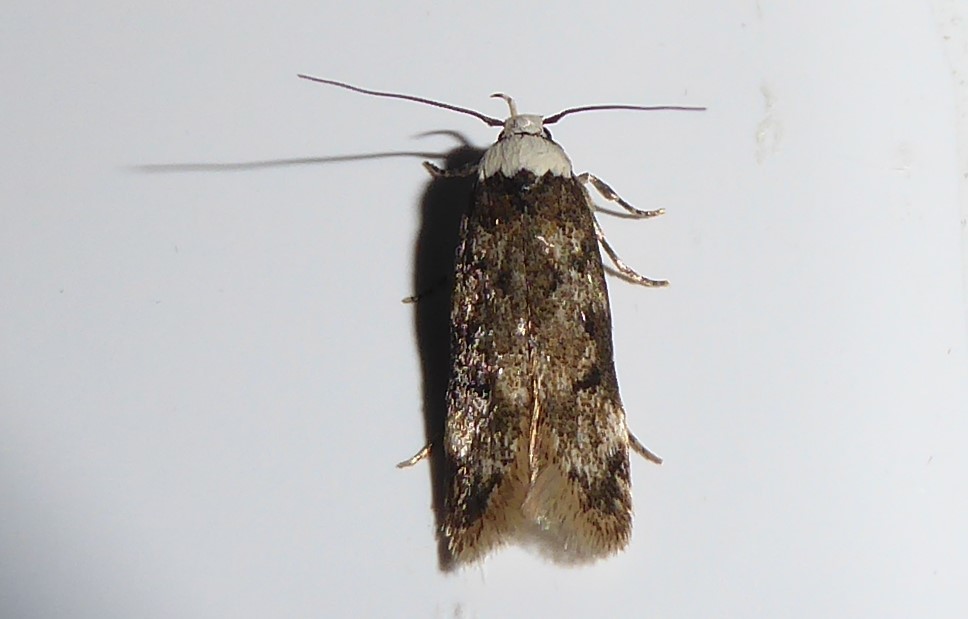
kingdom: Animalia
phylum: Arthropoda
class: Insecta
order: Lepidoptera
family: Oecophoridae
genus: Endrosis
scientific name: Endrosis sarcitrella
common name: White-shouldered house moth
